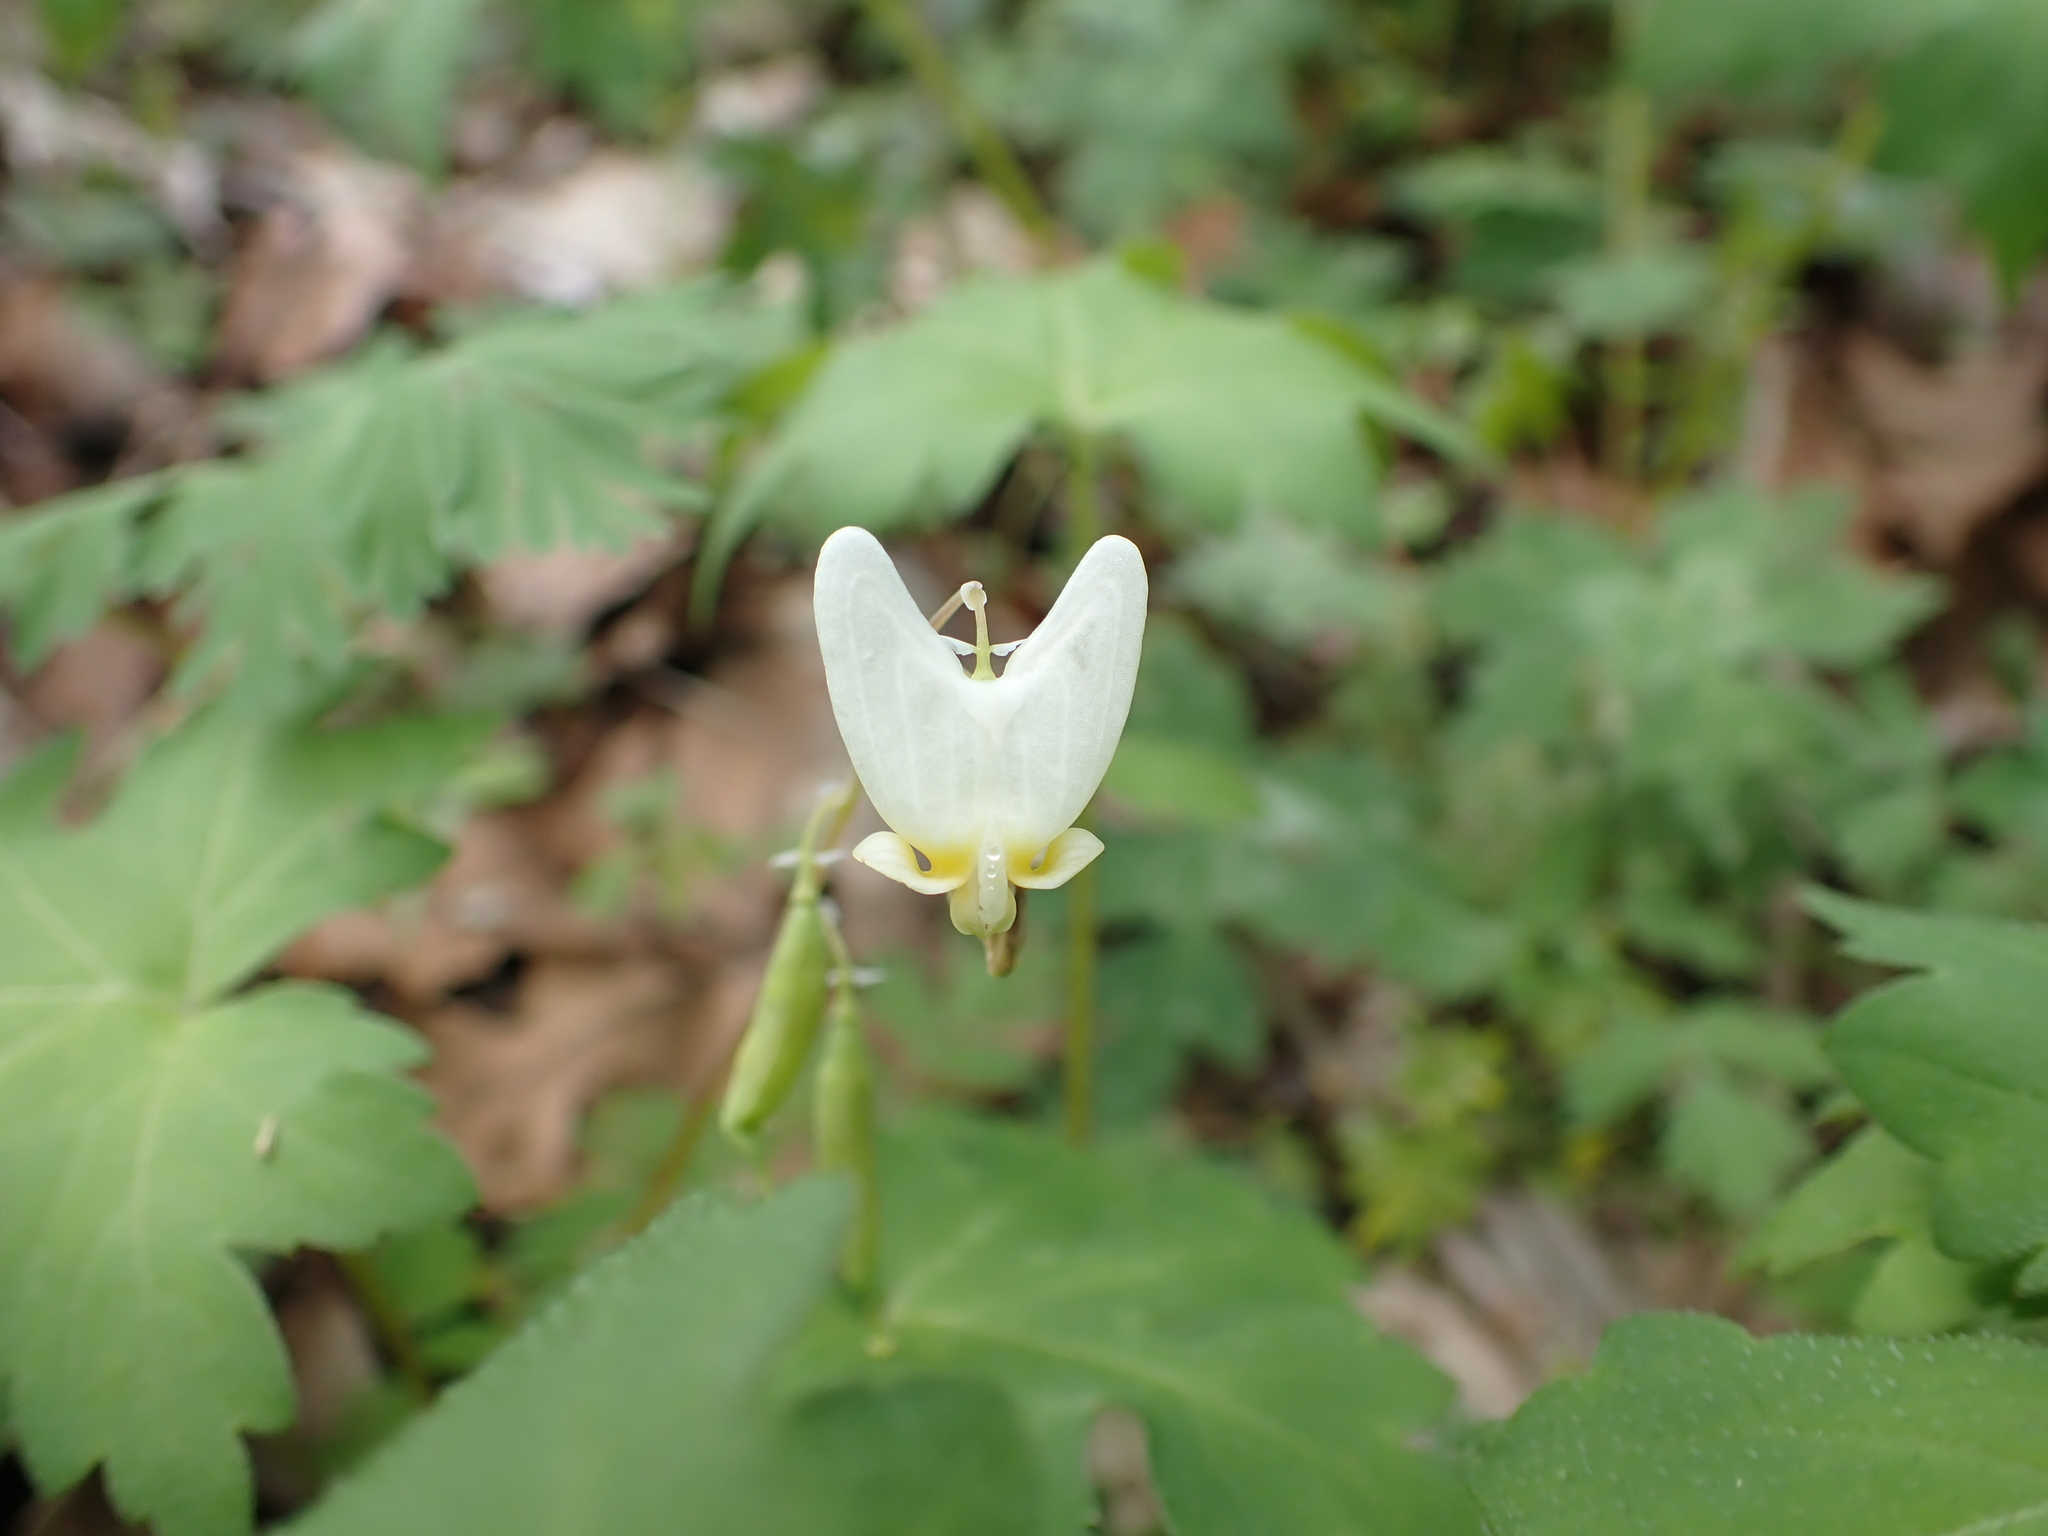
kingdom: Plantae
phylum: Tracheophyta
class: Magnoliopsida
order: Ranunculales
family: Papaveraceae
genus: Dicentra
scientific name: Dicentra cucullaria
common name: Dutchman's breeches
